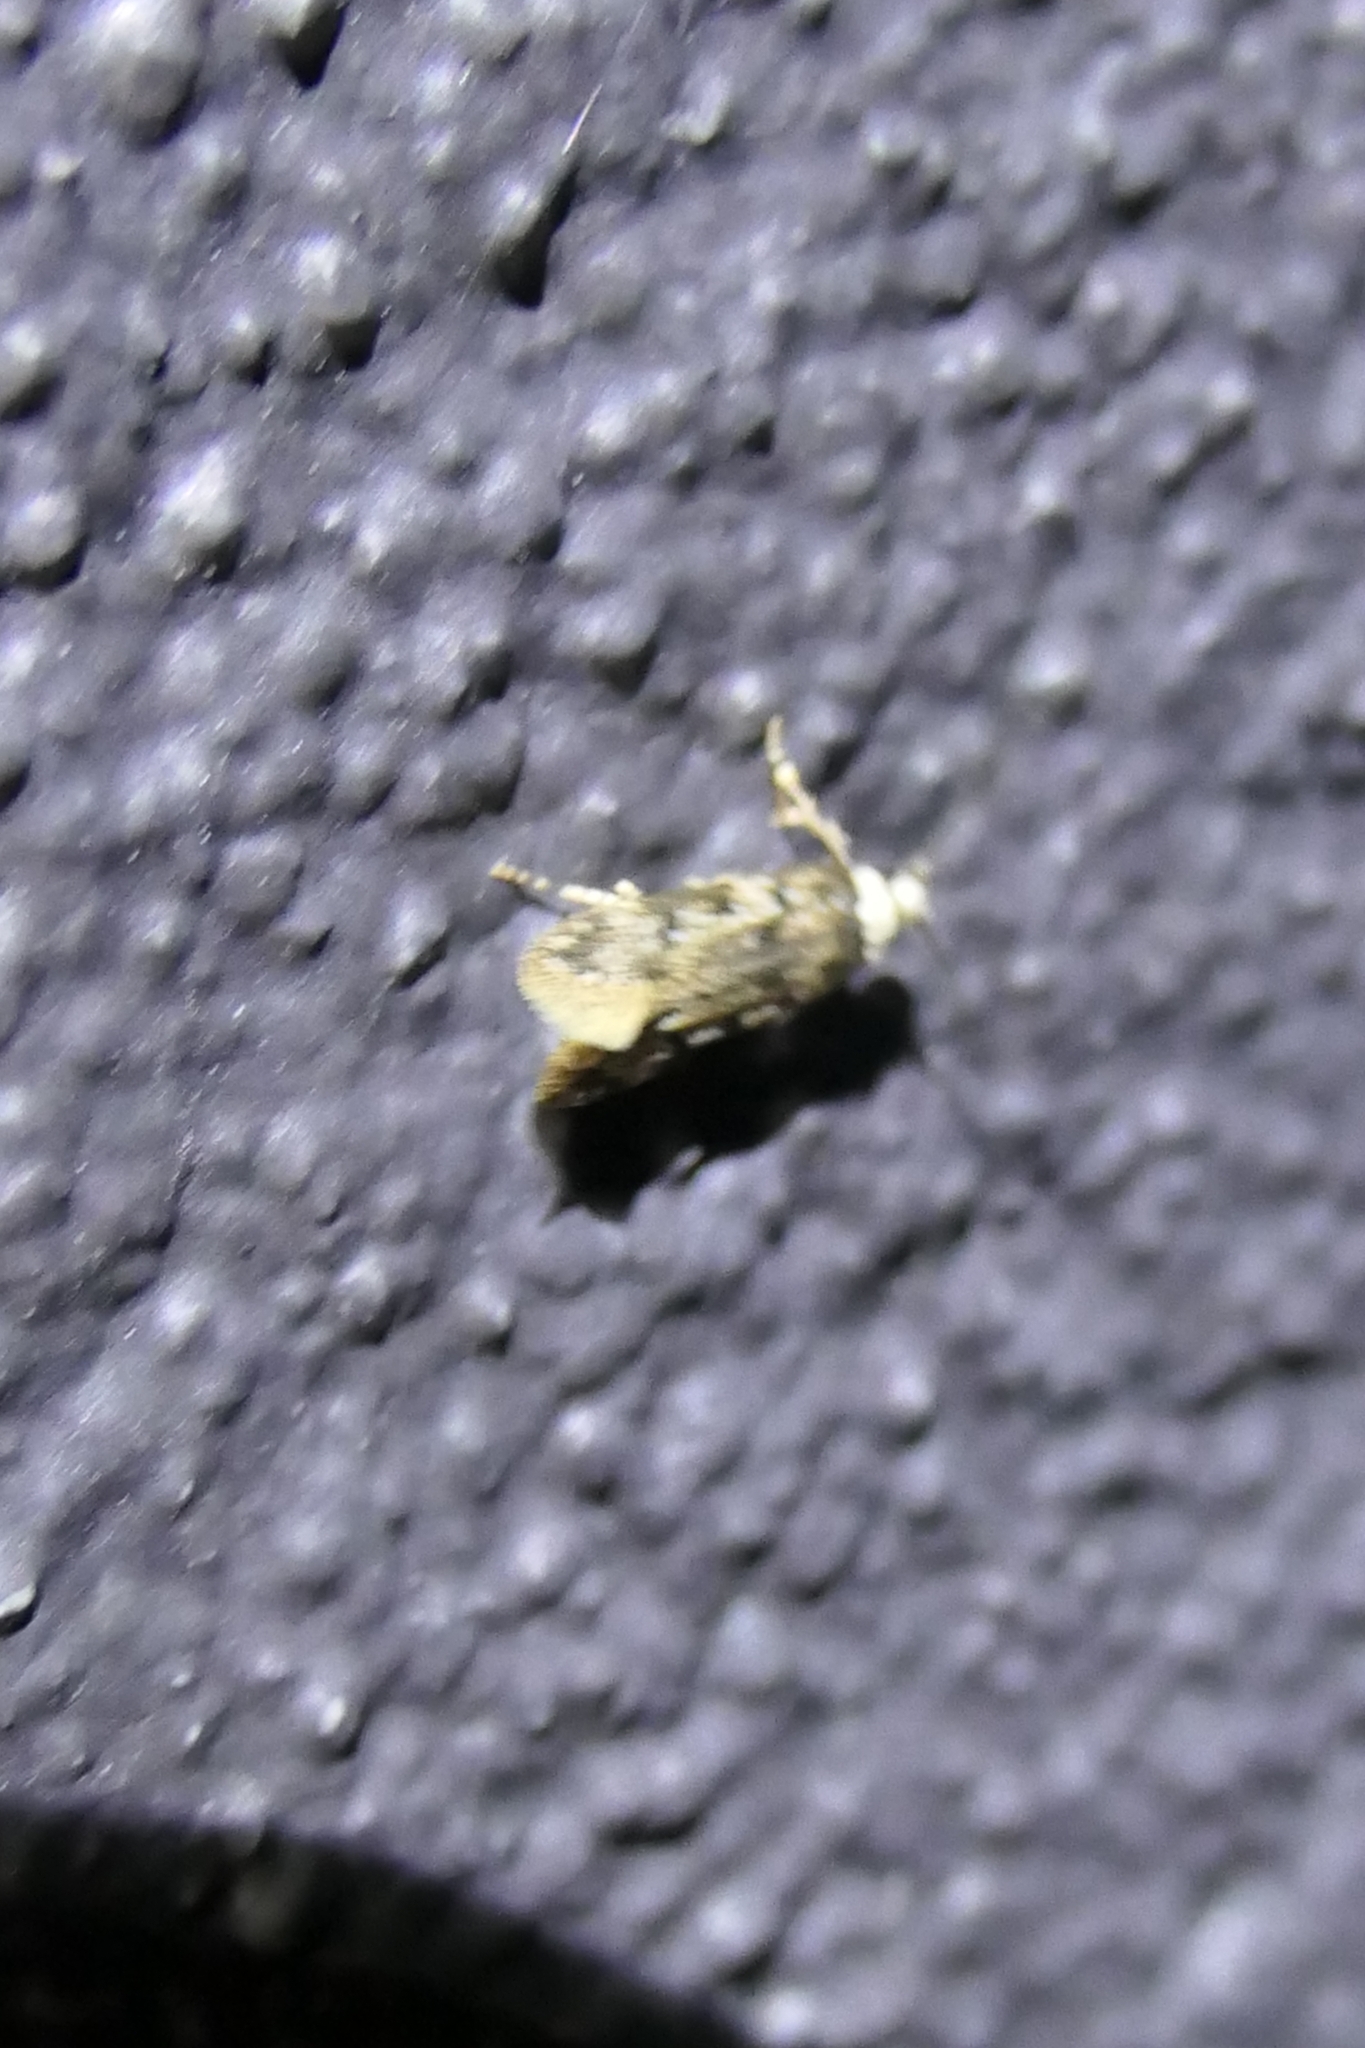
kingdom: Animalia
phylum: Arthropoda
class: Insecta
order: Lepidoptera
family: Oecophoridae
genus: Endrosis
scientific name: Endrosis sarcitrella
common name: White-shouldered house moth
